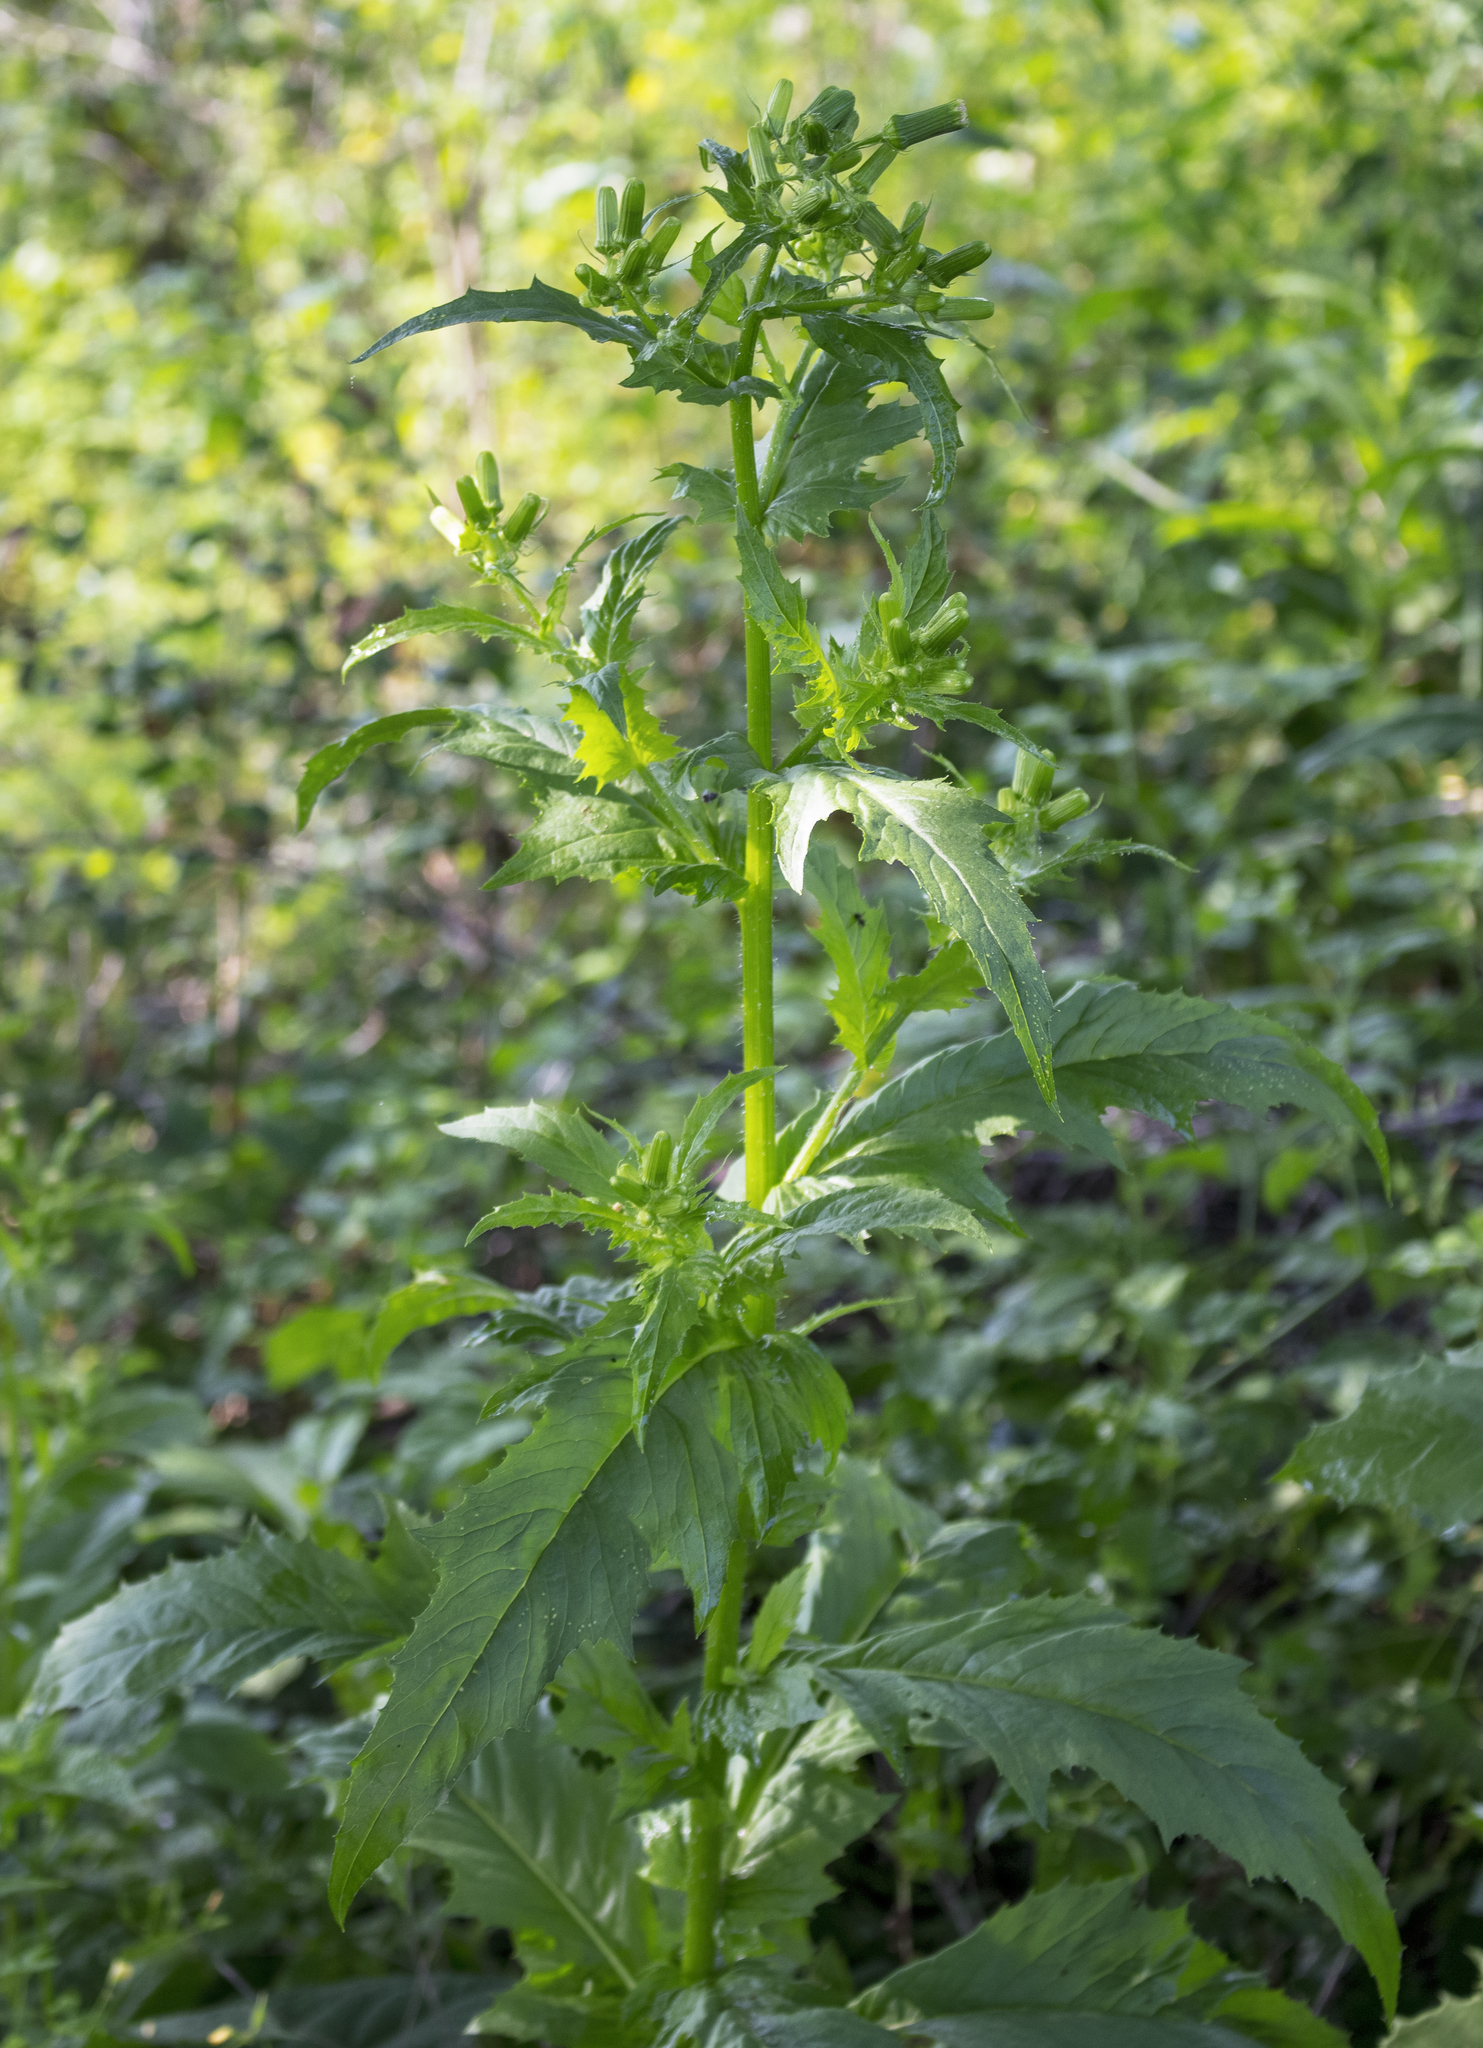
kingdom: Plantae
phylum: Tracheophyta
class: Magnoliopsida
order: Asterales
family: Asteraceae
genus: Erechtites
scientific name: Erechtites hieraciifolius
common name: American burnweed
